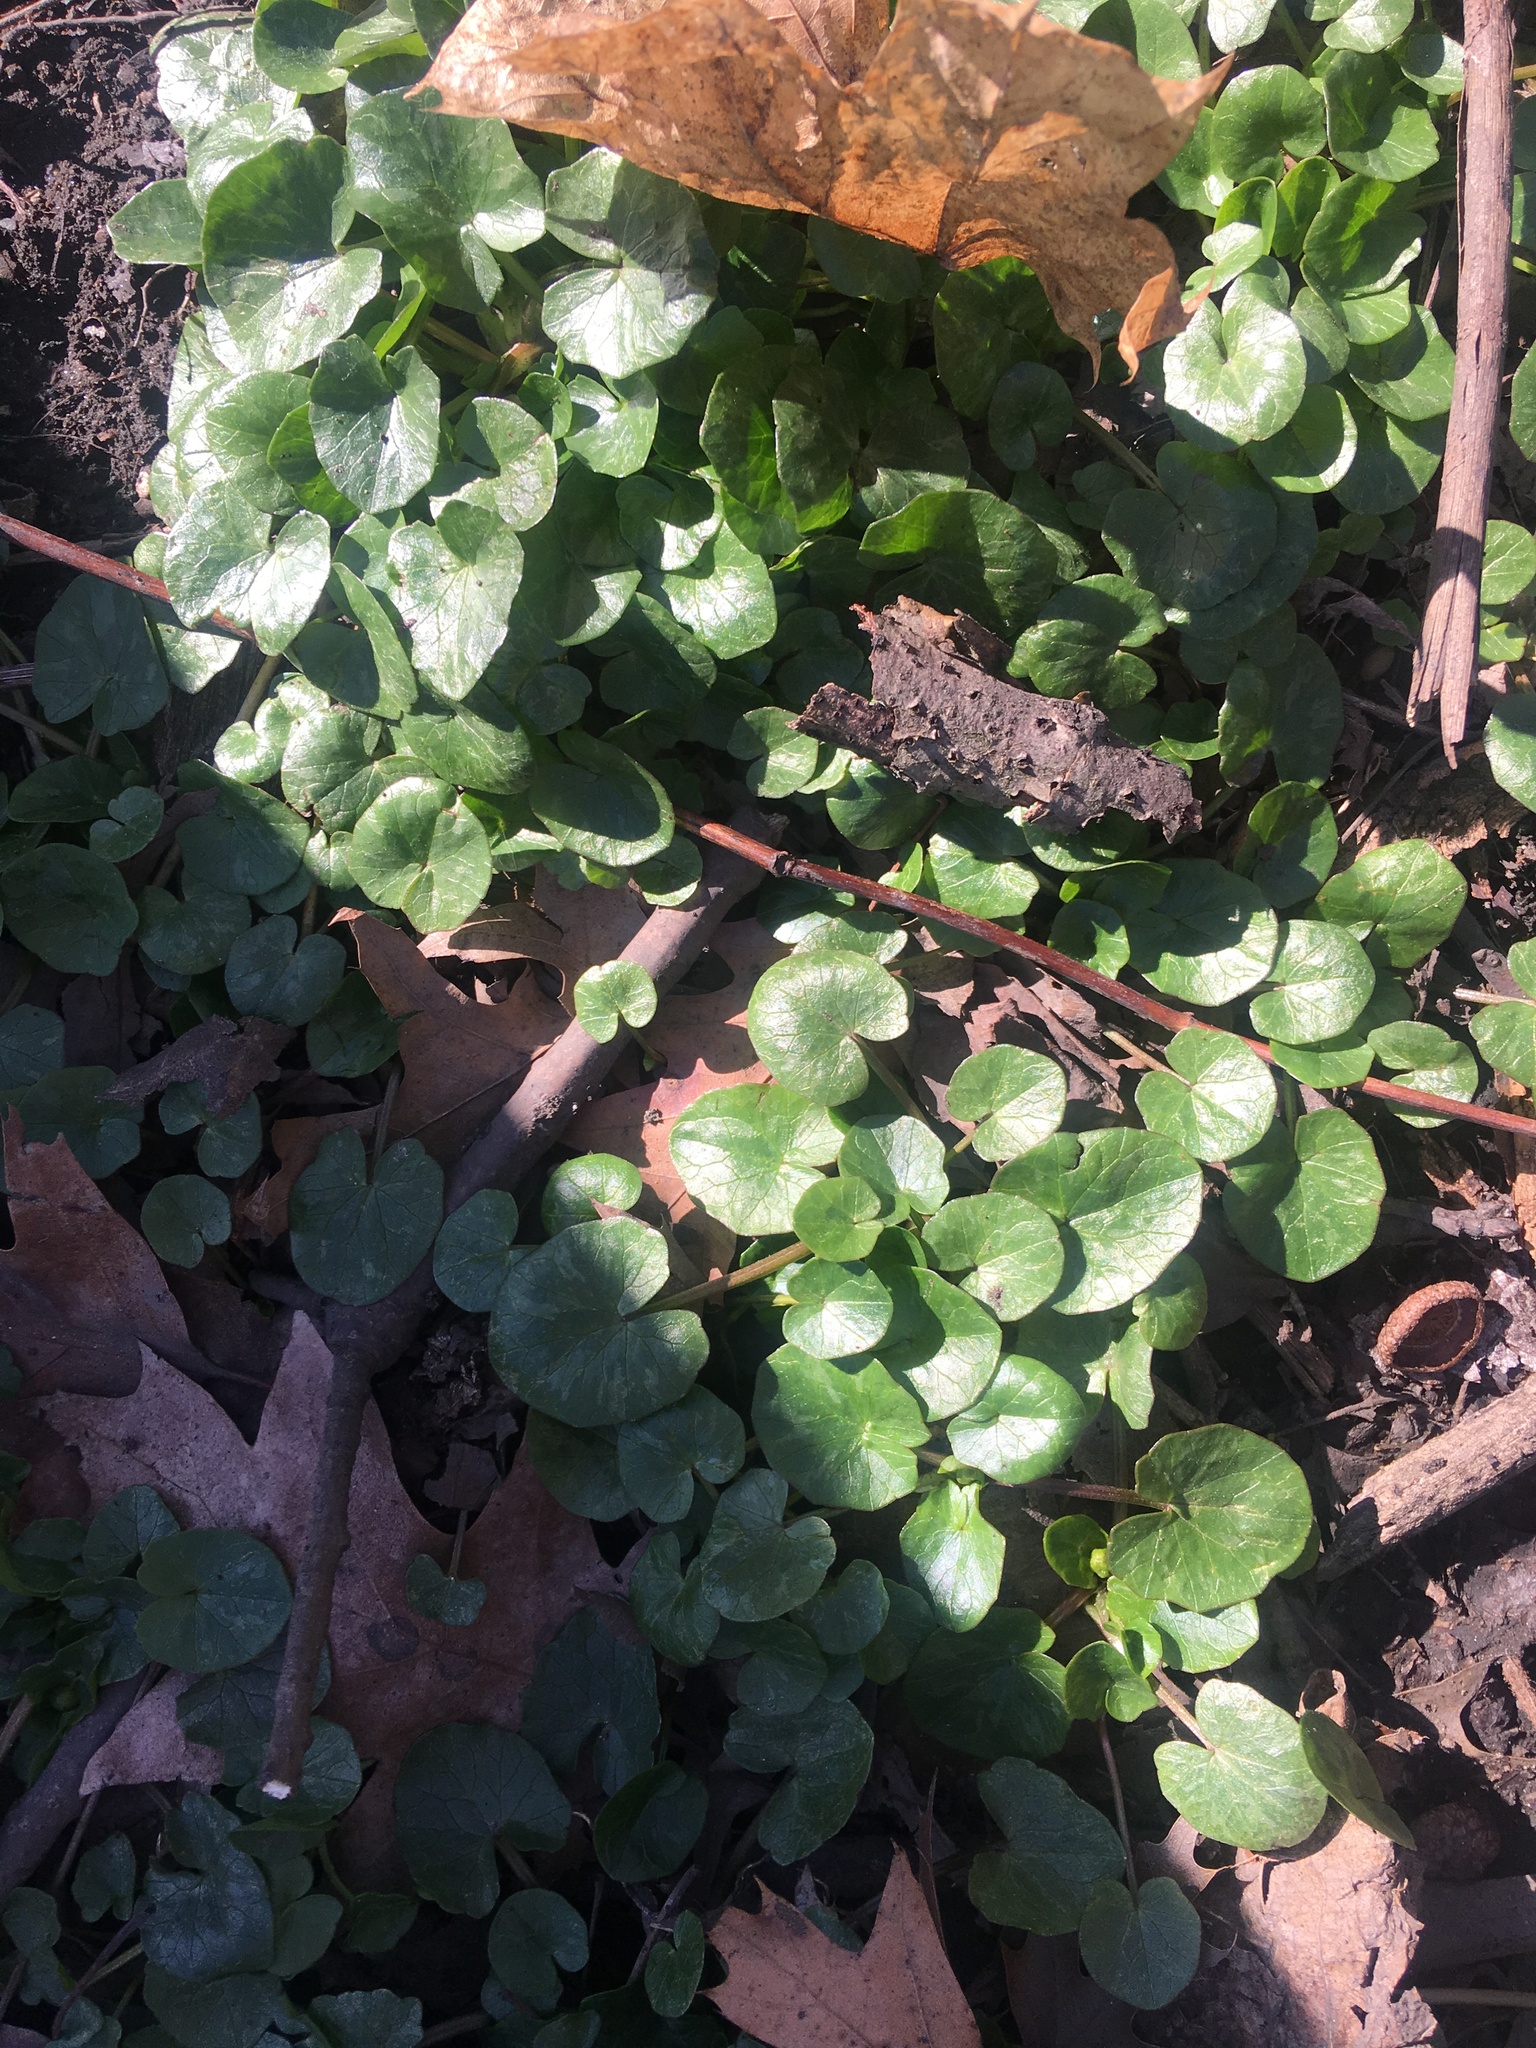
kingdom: Plantae
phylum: Tracheophyta
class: Magnoliopsida
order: Ranunculales
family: Ranunculaceae
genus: Ficaria
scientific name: Ficaria verna
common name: Lesser celandine
